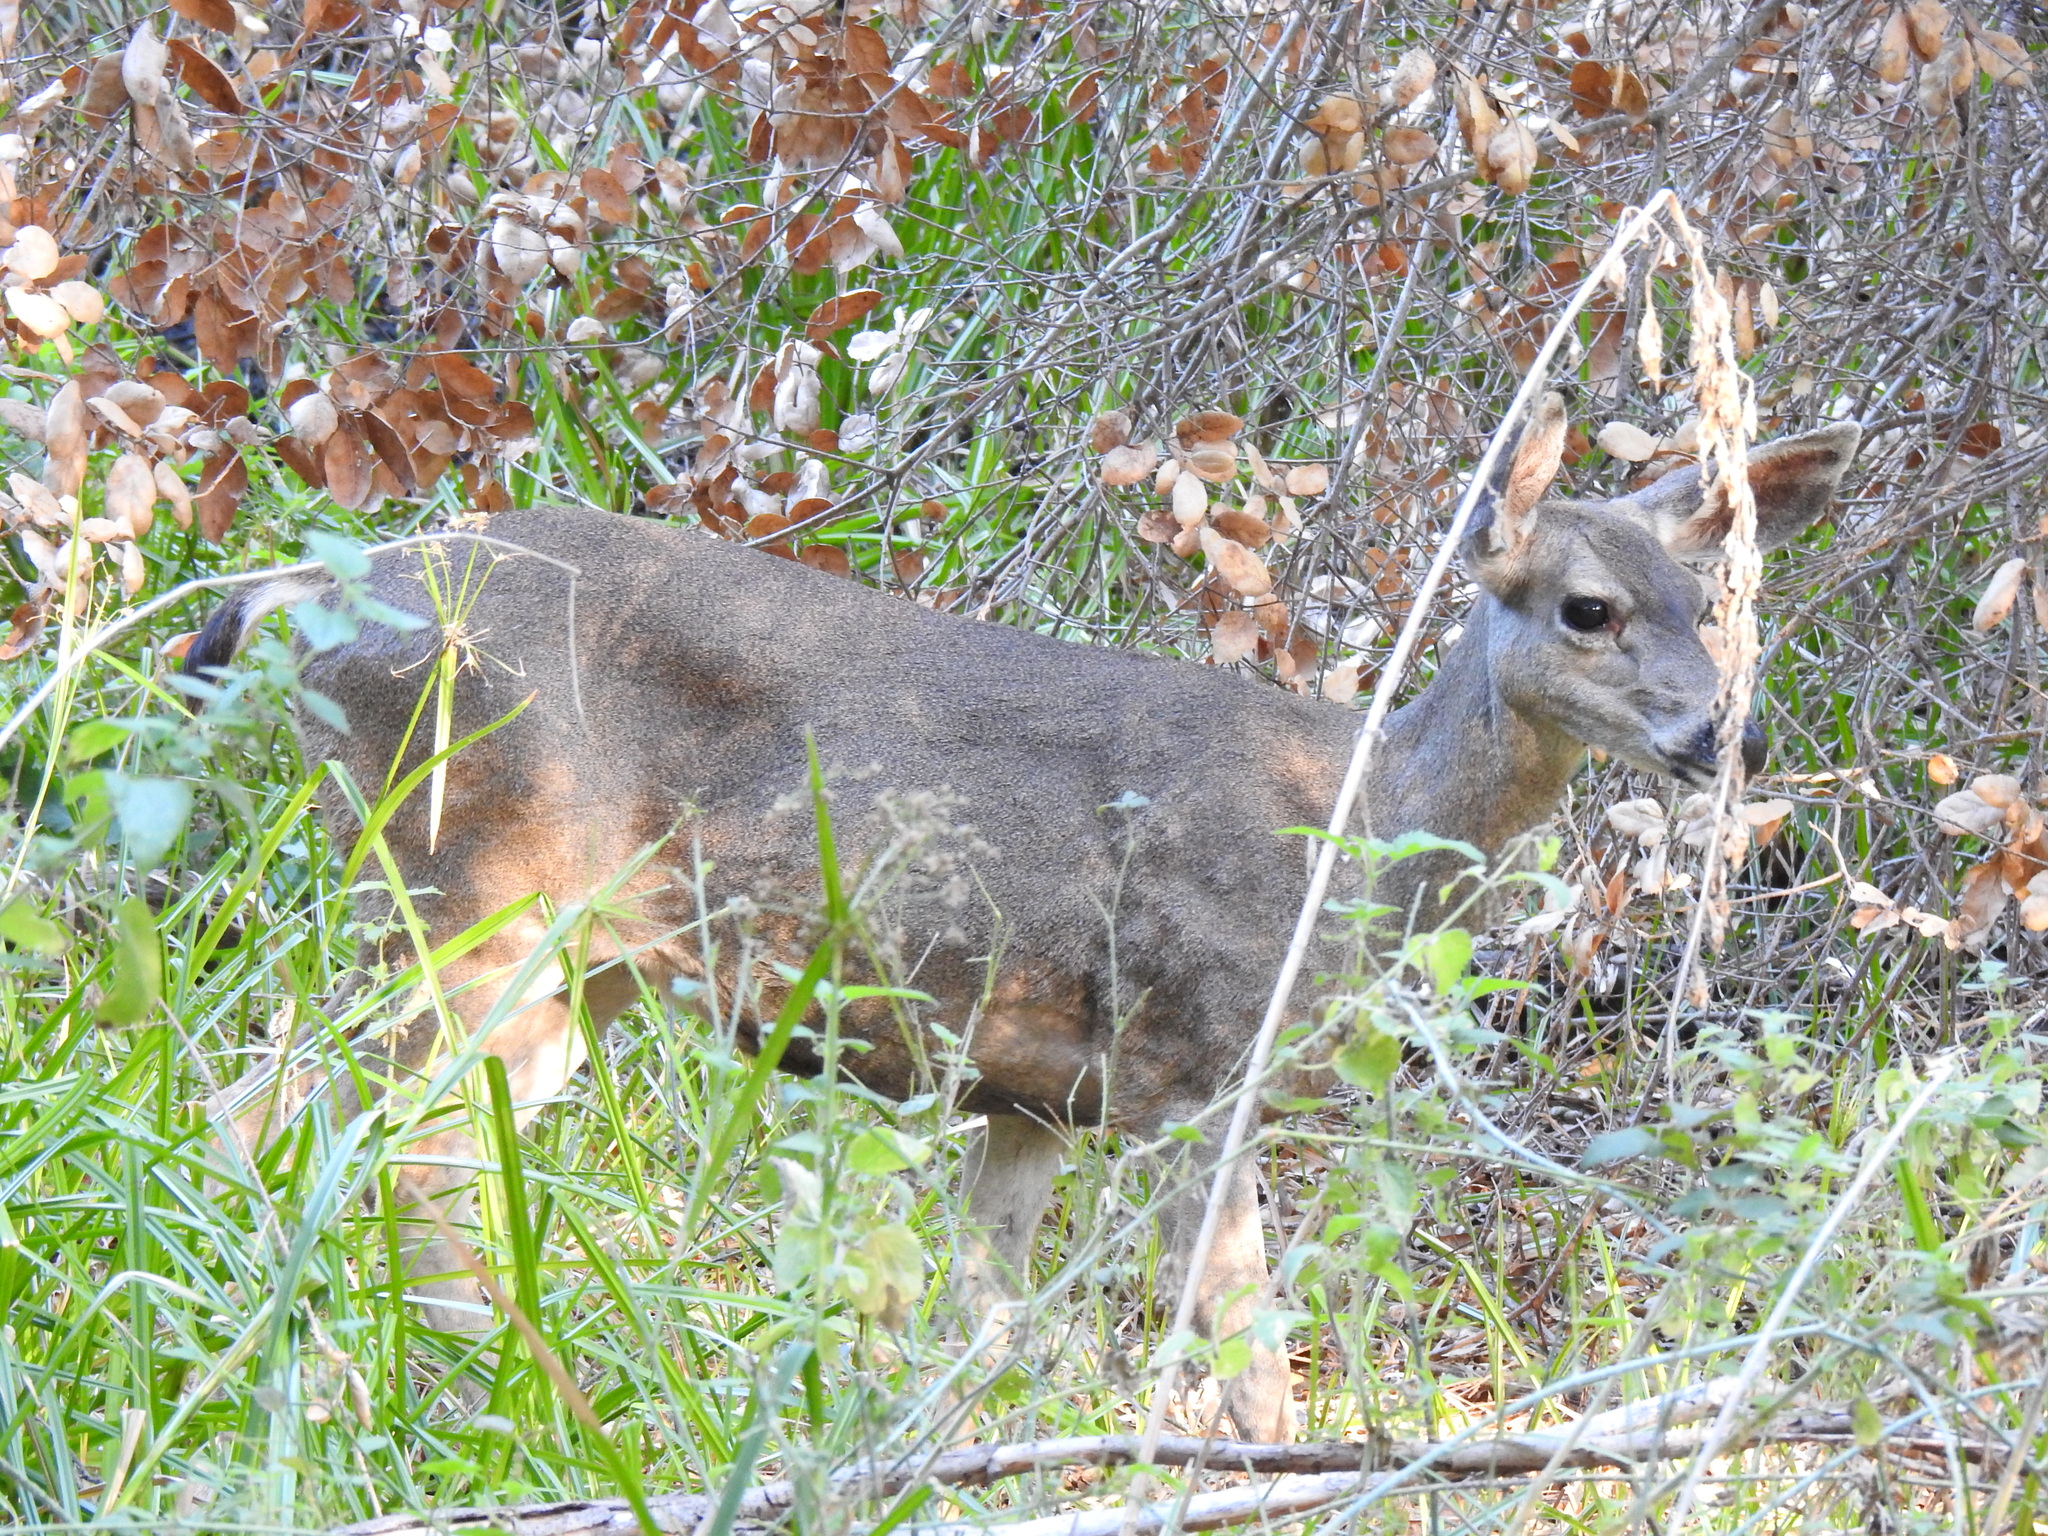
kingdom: Animalia
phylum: Chordata
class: Mammalia
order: Artiodactyla
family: Cervidae
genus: Odocoileus
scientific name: Odocoileus hemionus
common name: Mule deer
